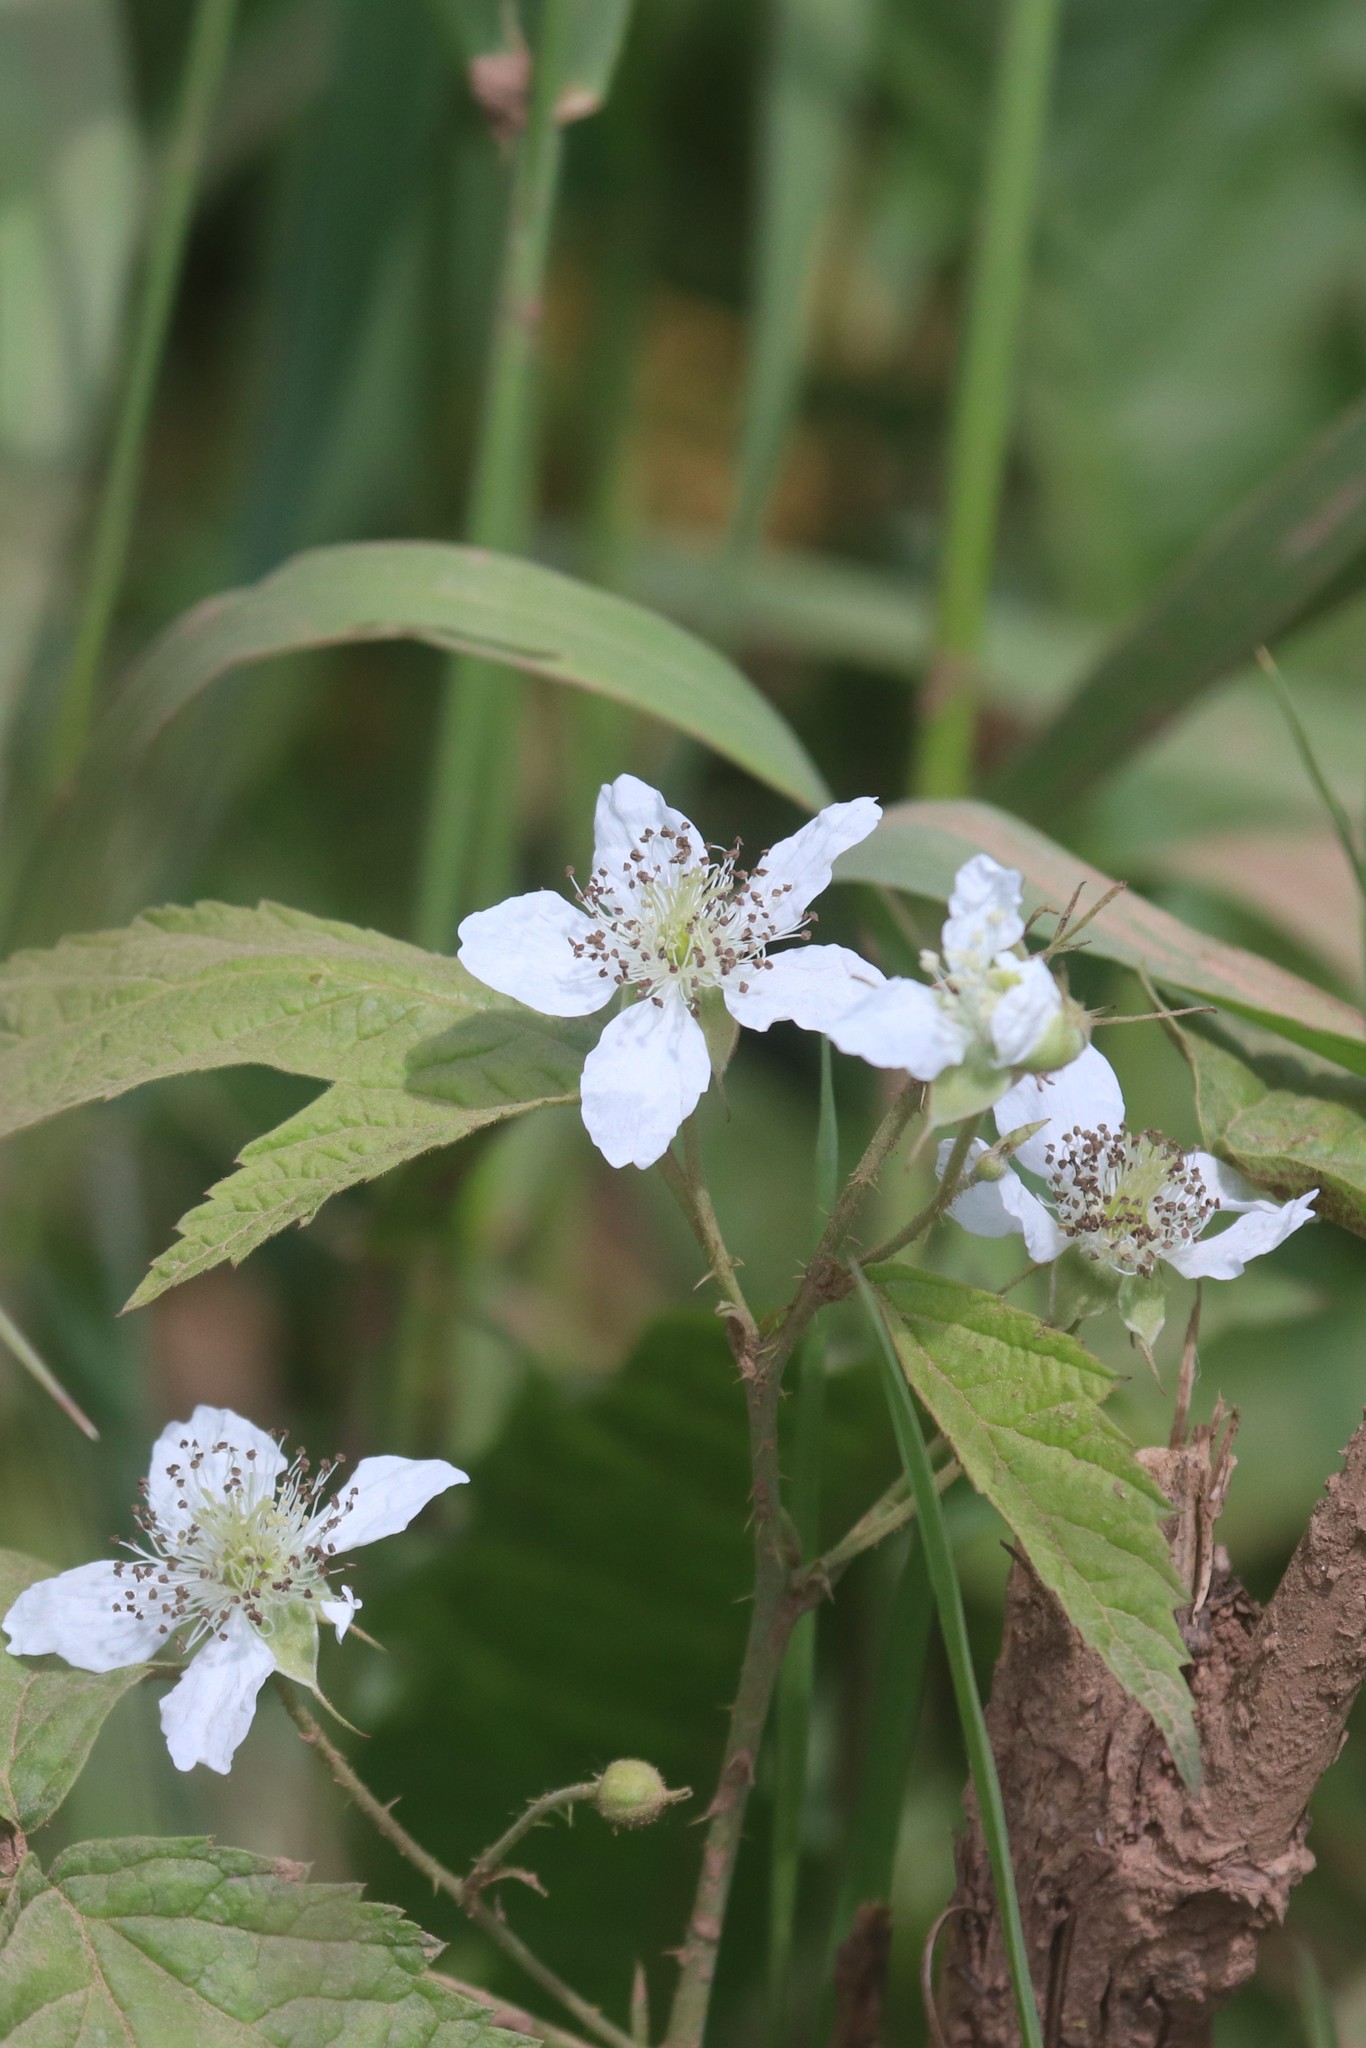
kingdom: Plantae
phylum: Tracheophyta
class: Magnoliopsida
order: Rosales
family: Rosaceae
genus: Rubus
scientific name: Rubus caesius
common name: Dewberry
